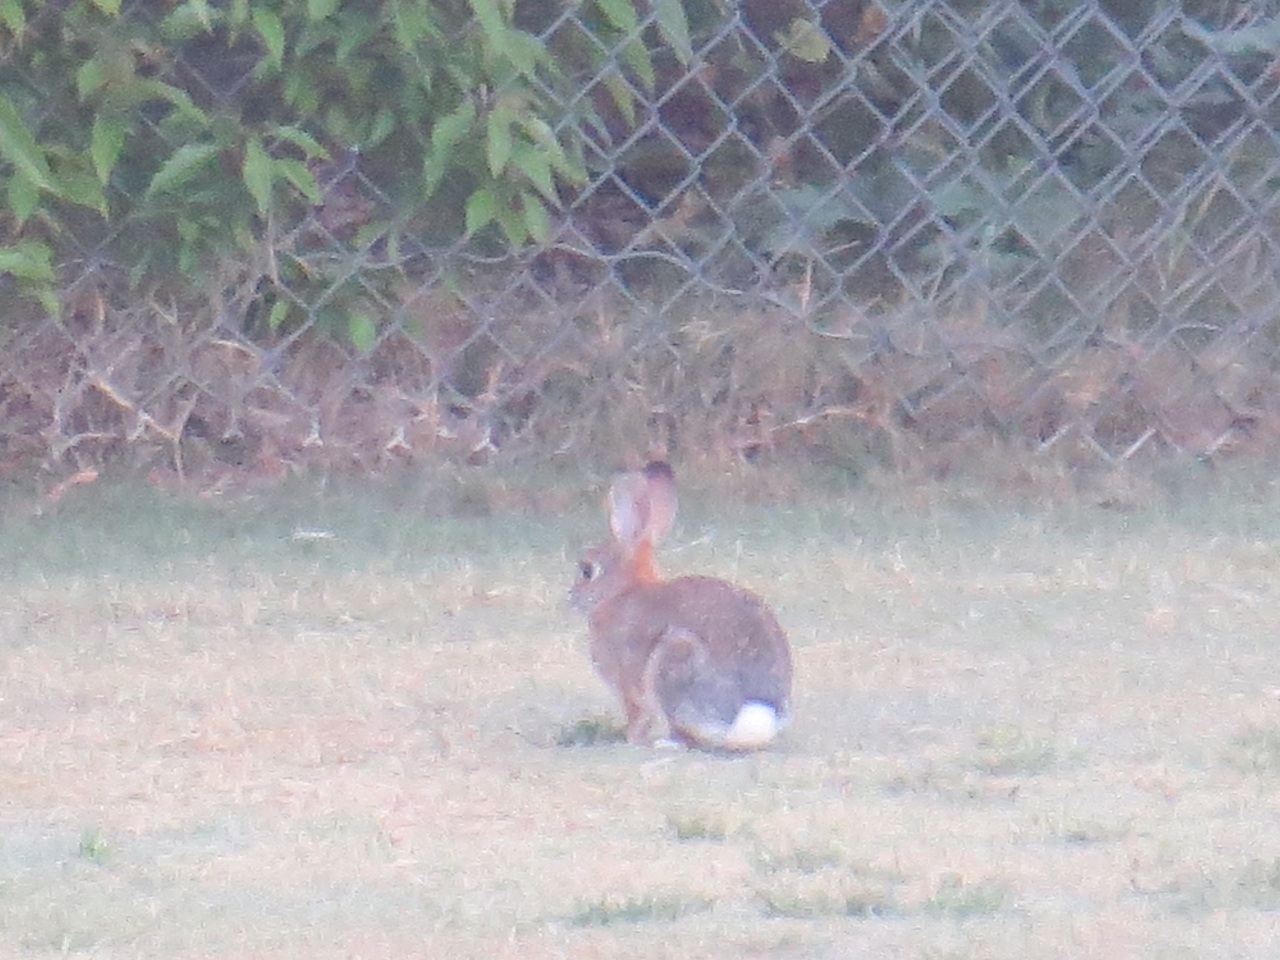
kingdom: Animalia
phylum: Chordata
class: Mammalia
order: Lagomorpha
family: Leporidae
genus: Sylvilagus
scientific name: Sylvilagus audubonii
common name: Desert cottontail
